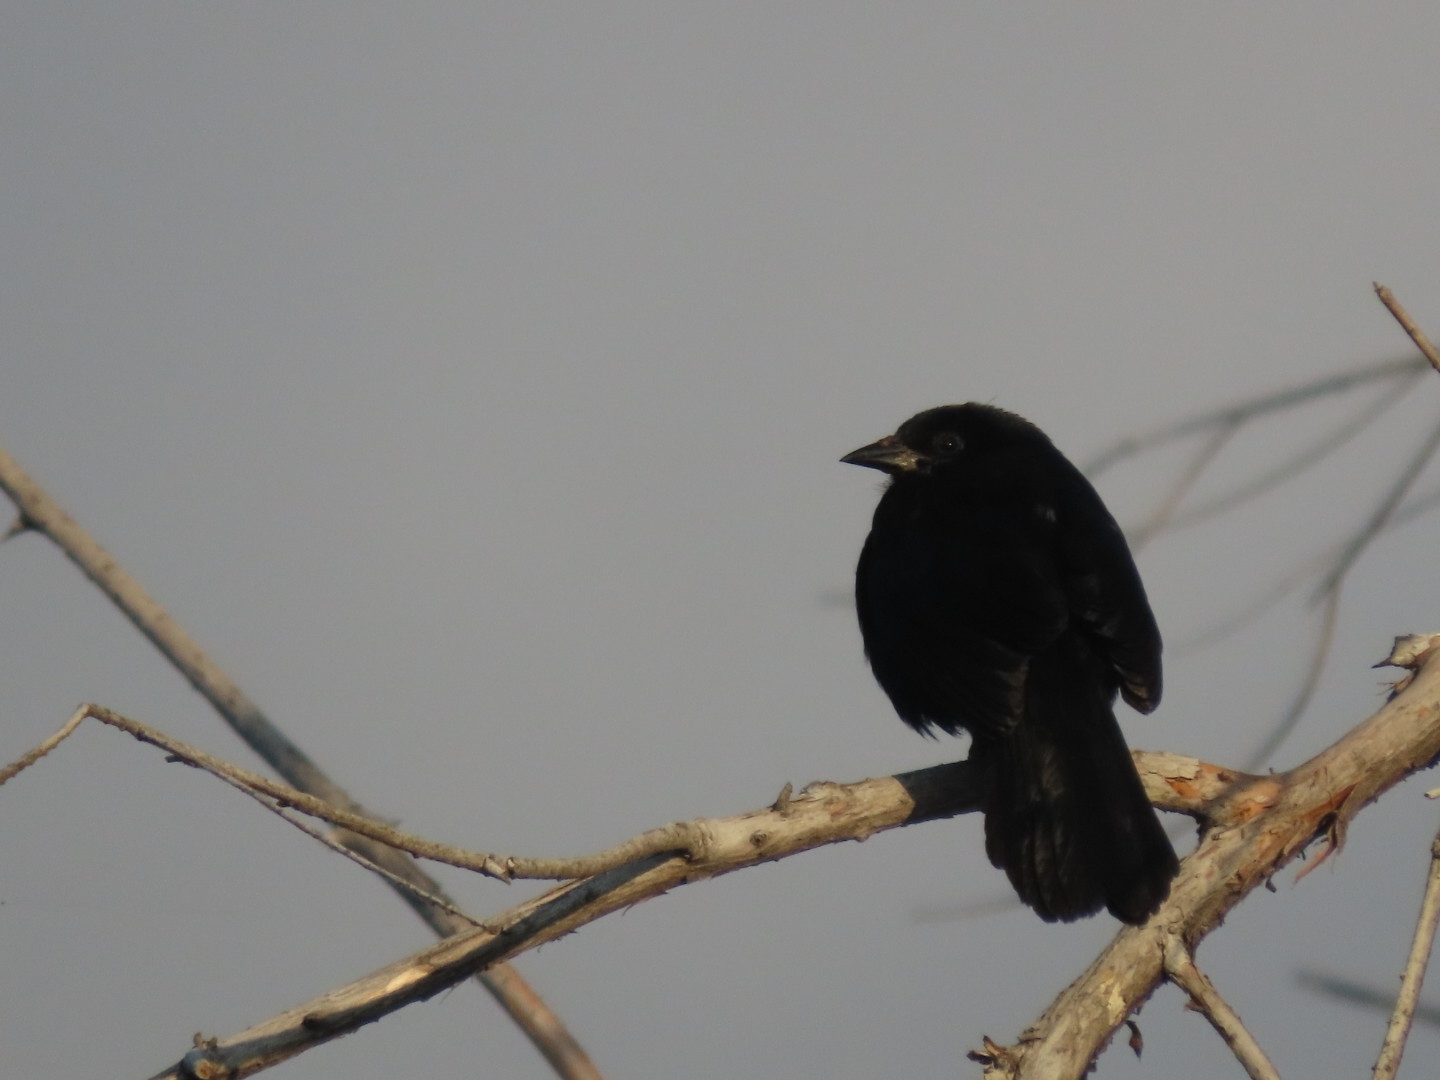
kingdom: Animalia
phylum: Chordata
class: Aves
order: Passeriformes
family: Icteridae
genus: Dives
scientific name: Dives dives
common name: Melodious blackbird
